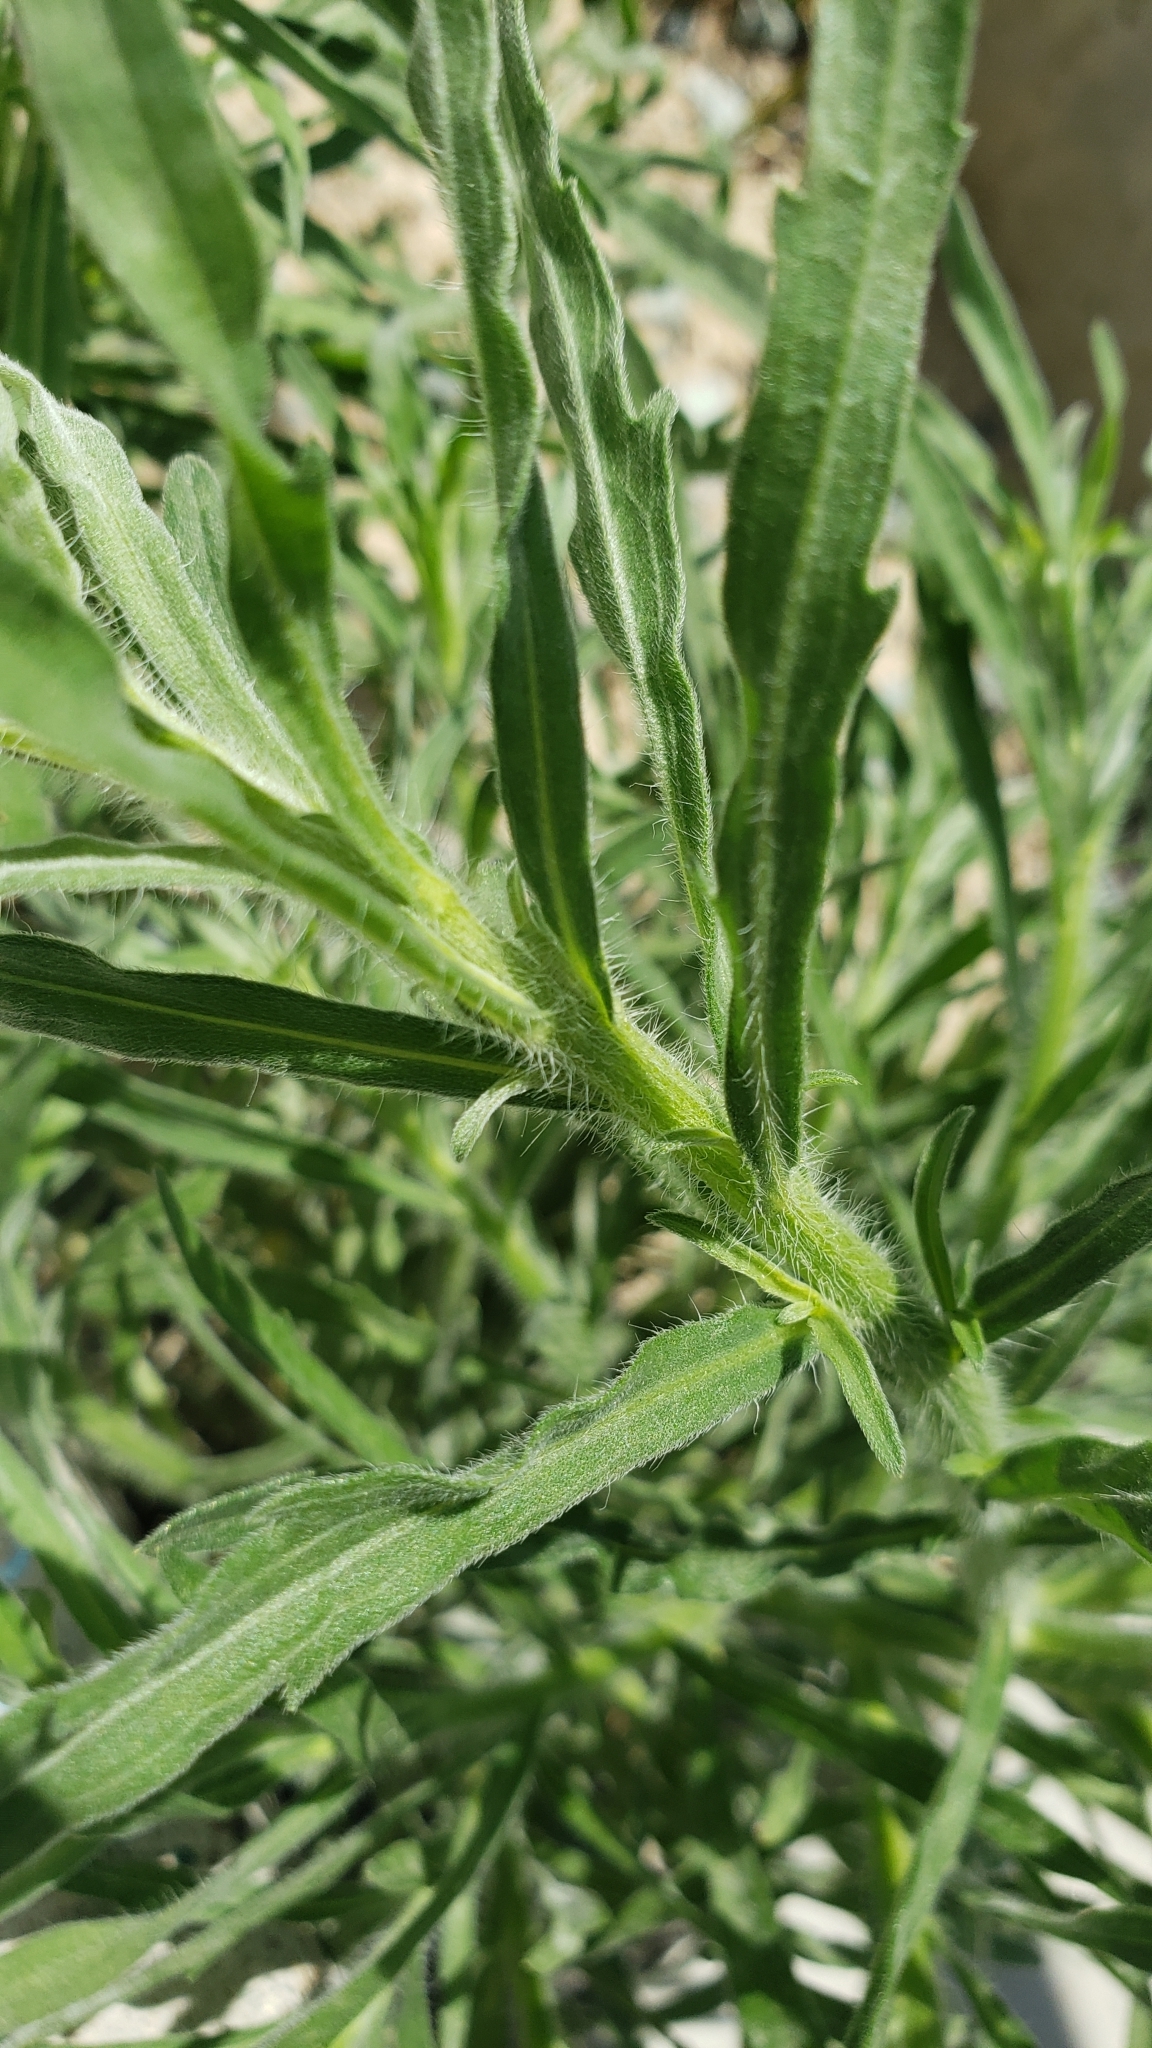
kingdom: Plantae
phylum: Tracheophyta
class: Magnoliopsida
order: Asterales
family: Asteraceae
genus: Erigeron
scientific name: Erigeron bonariensis
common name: Argentine fleabane
